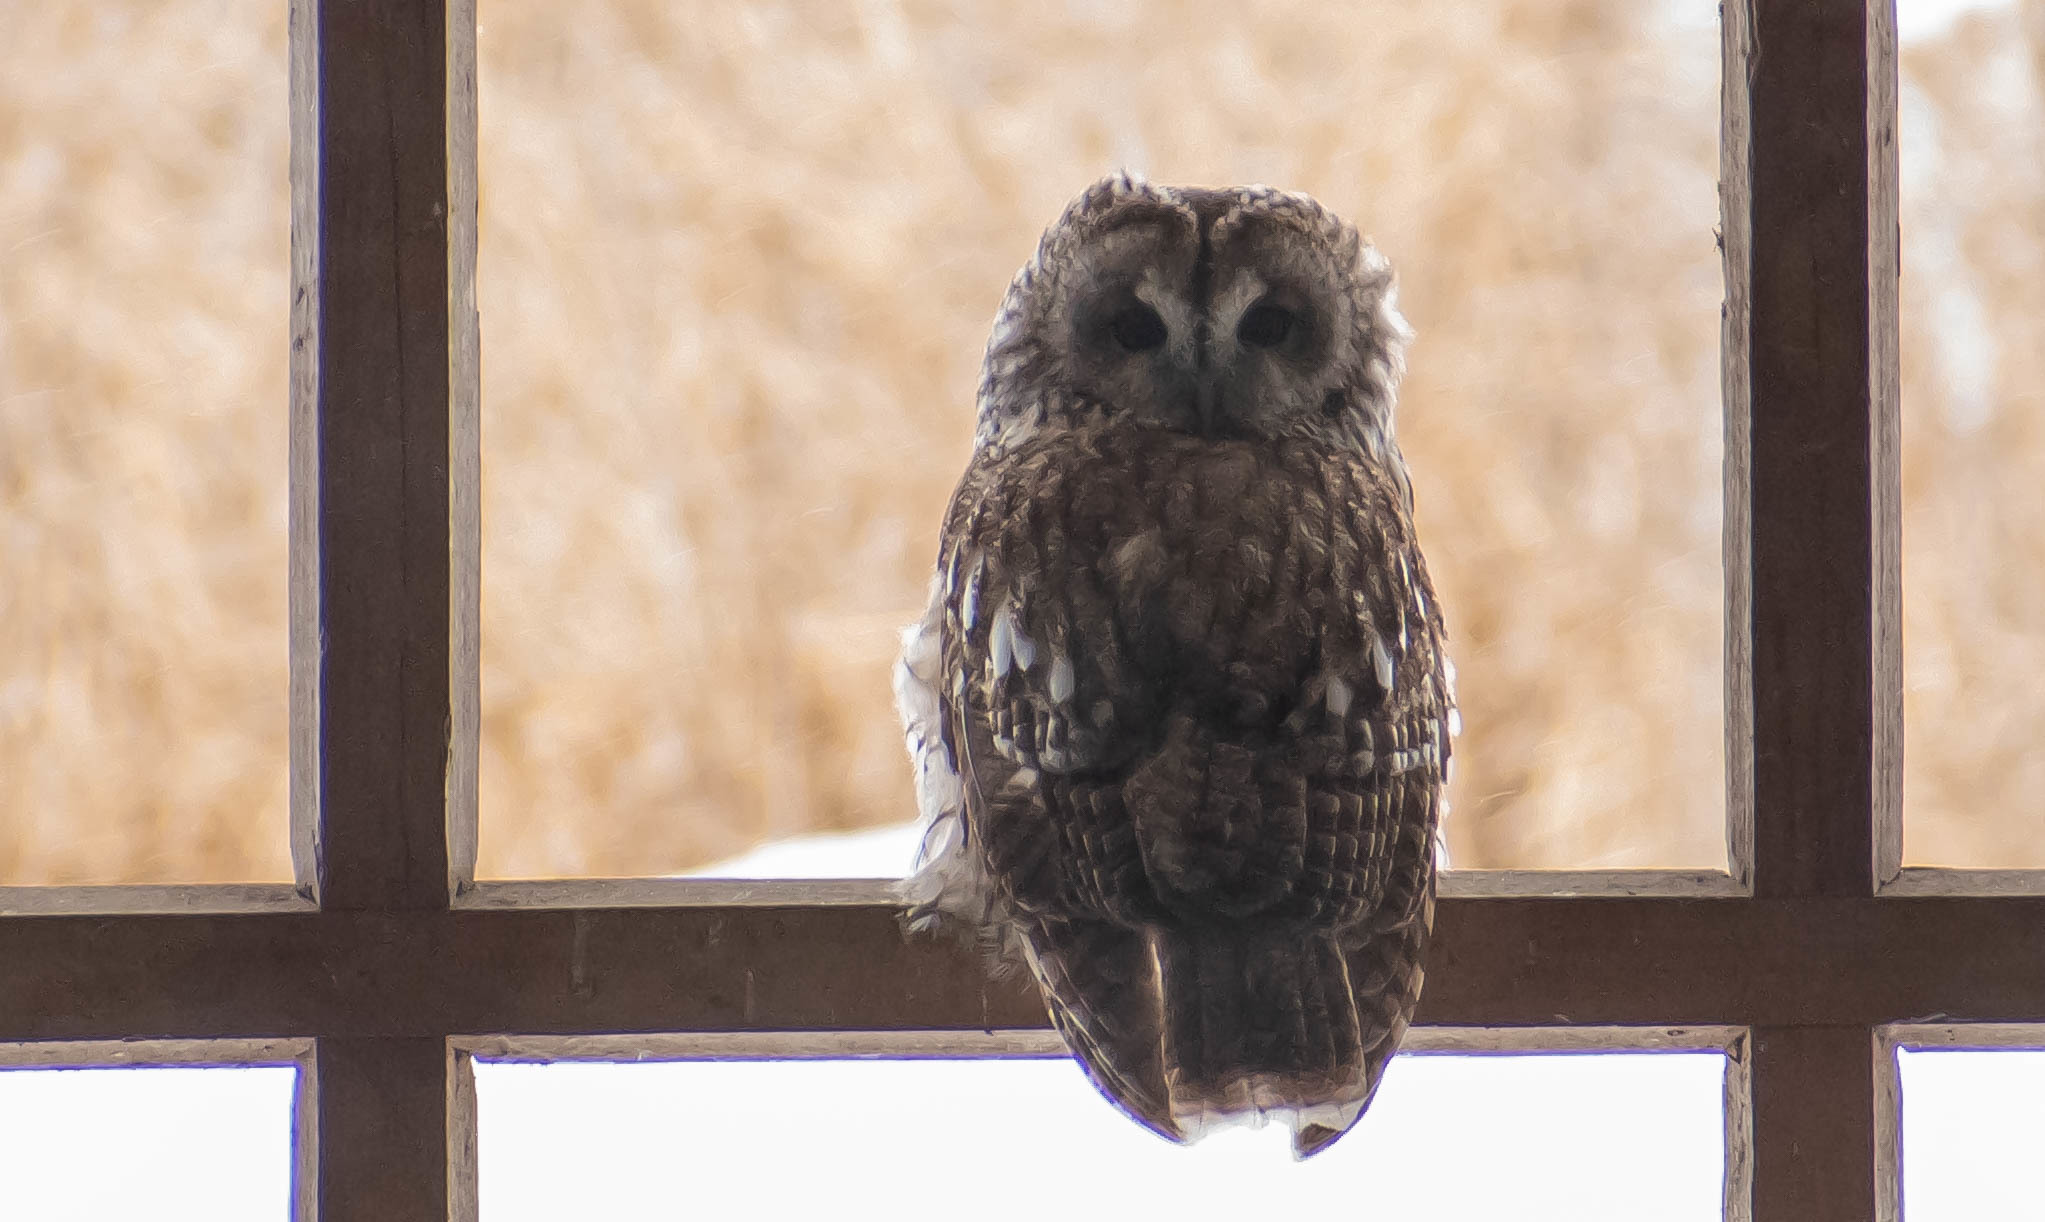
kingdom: Animalia
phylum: Chordata
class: Aves
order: Strigiformes
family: Strigidae
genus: Strix
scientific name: Strix aluco
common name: Tawny owl
